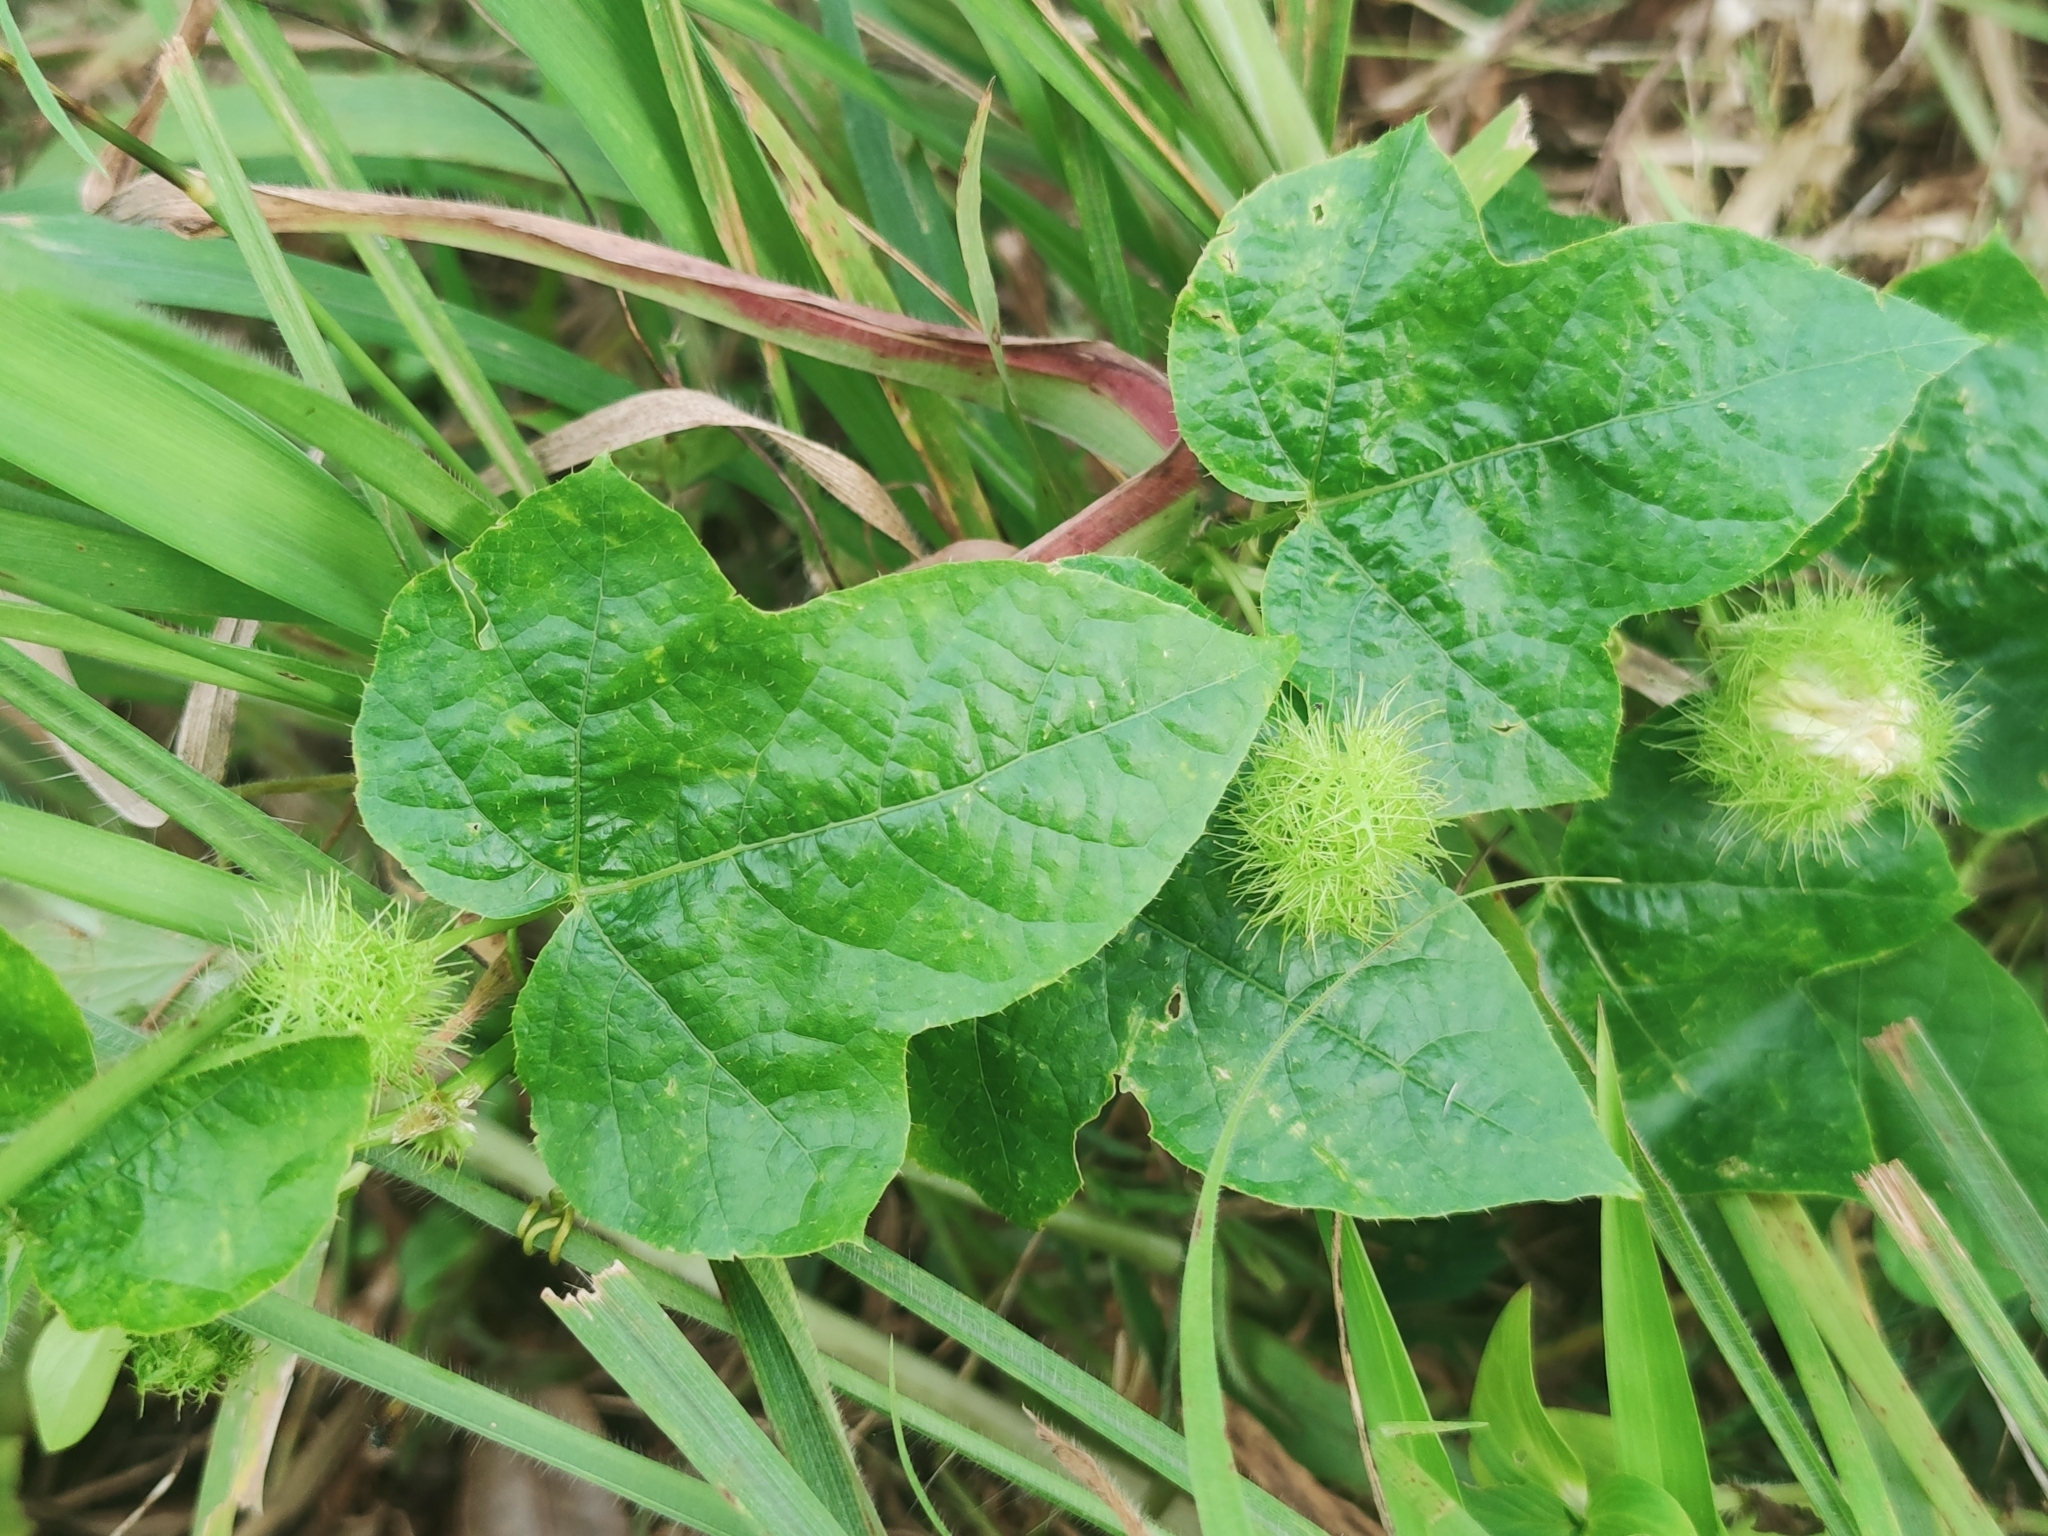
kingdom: Plantae
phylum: Tracheophyta
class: Magnoliopsida
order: Malpighiales
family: Passifloraceae
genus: Passiflora
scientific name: Passiflora foetida
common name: Fetid passionflower
